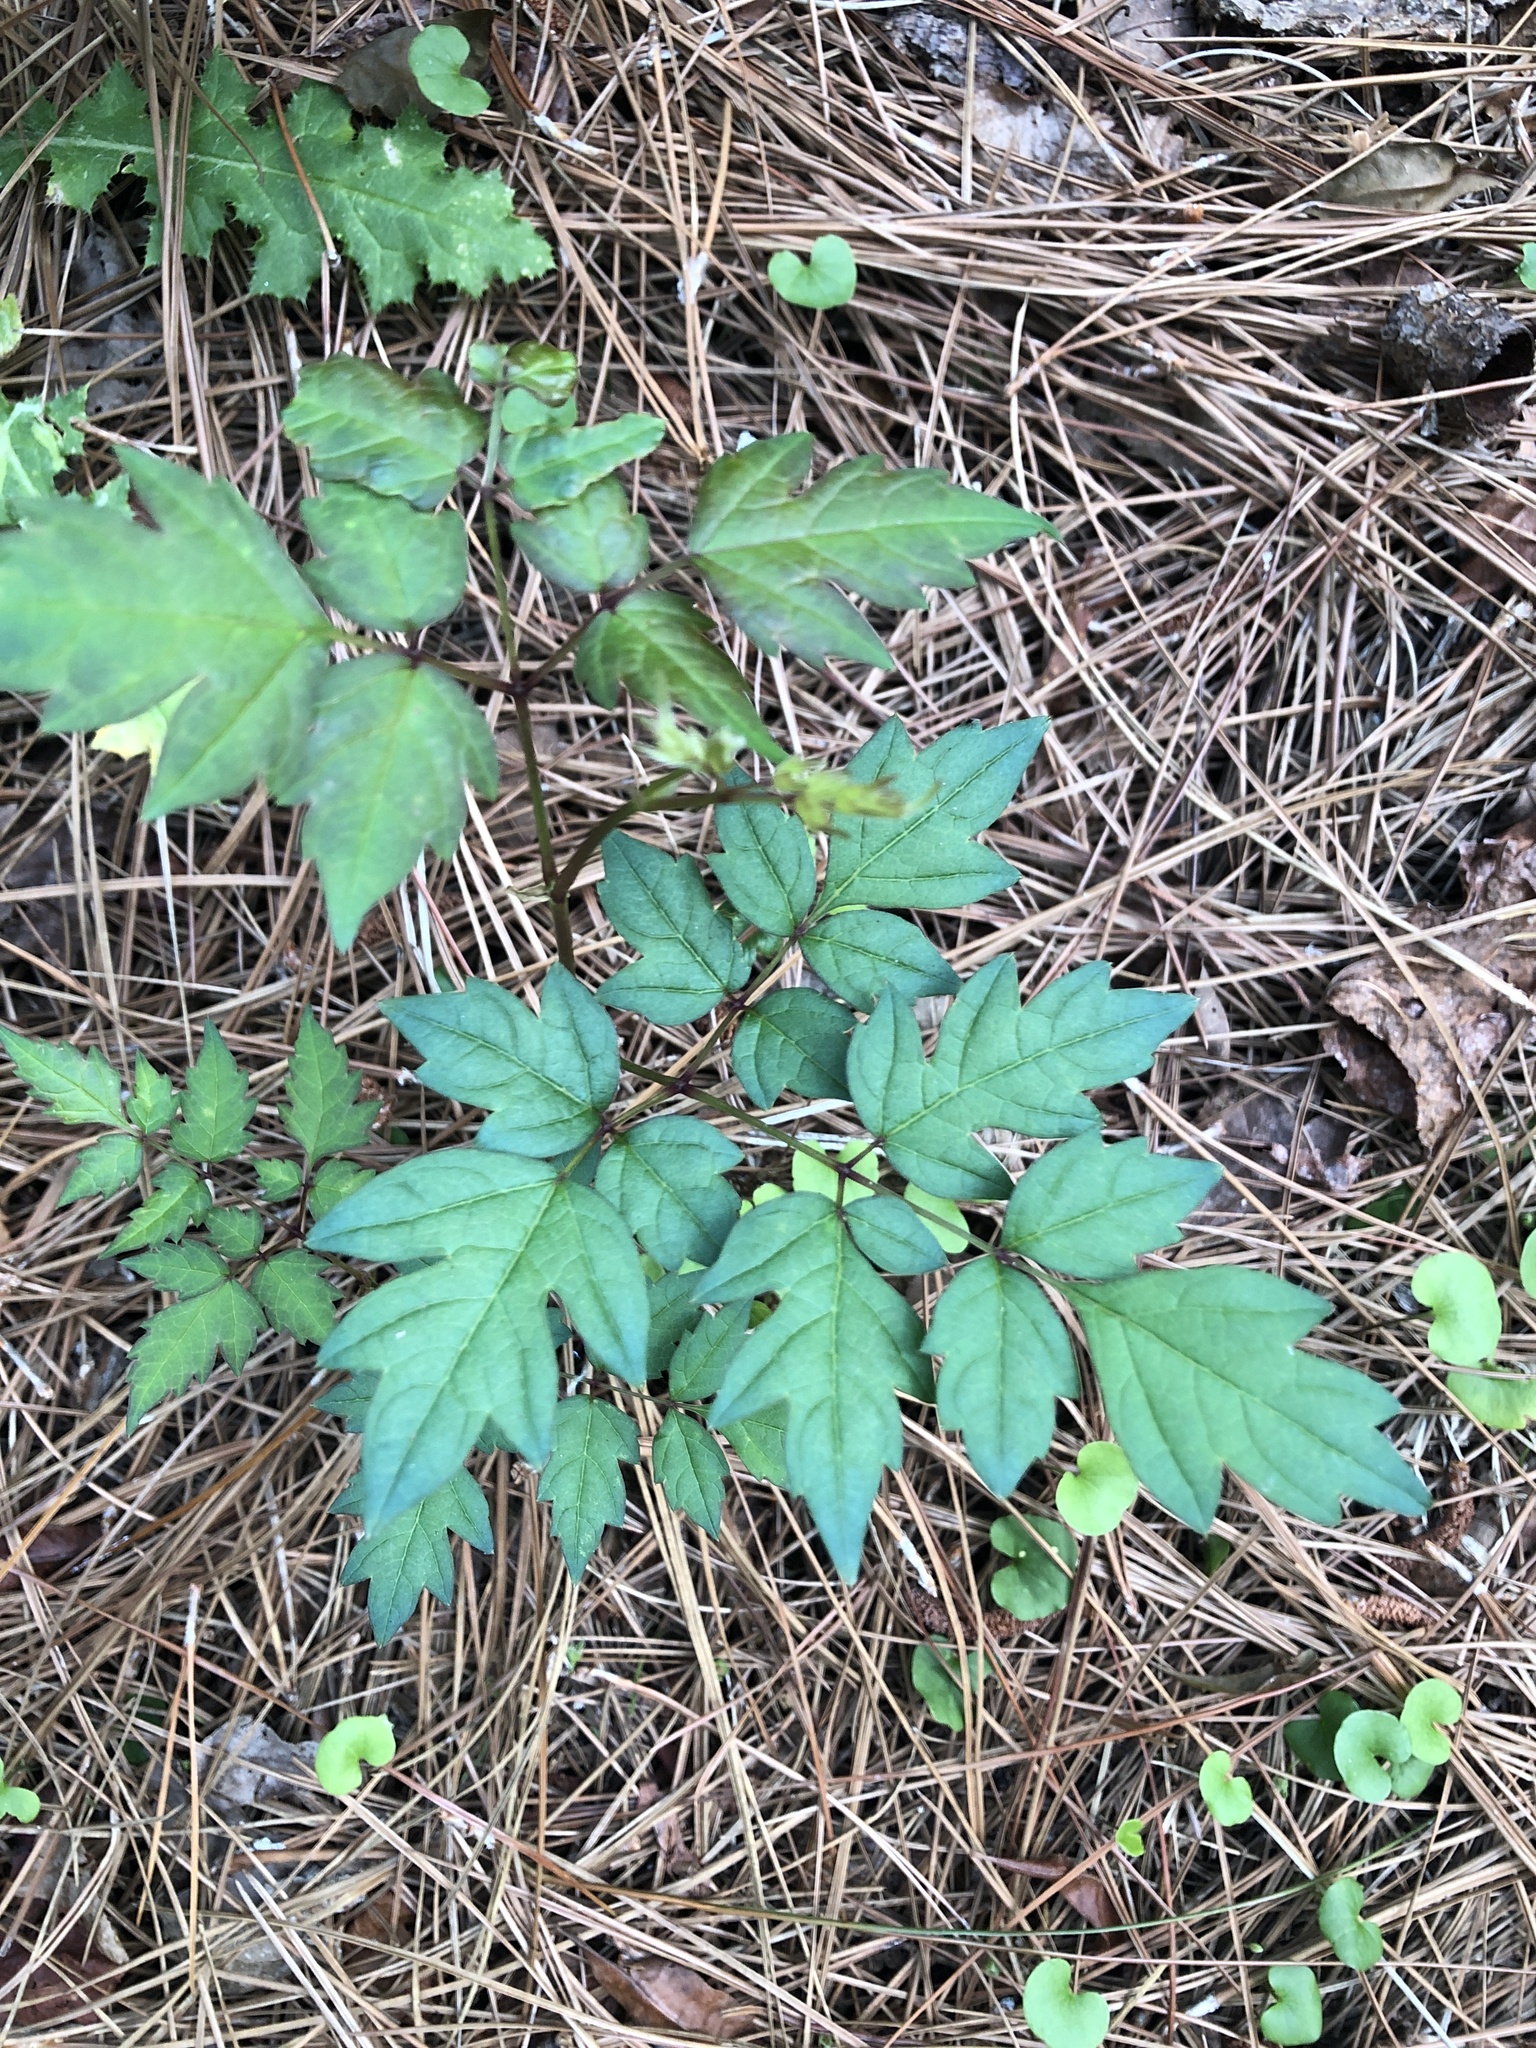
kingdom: Plantae
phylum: Tracheophyta
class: Magnoliopsida
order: Vitales
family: Vitaceae
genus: Nekemias
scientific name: Nekemias arborea
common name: Peppervine
